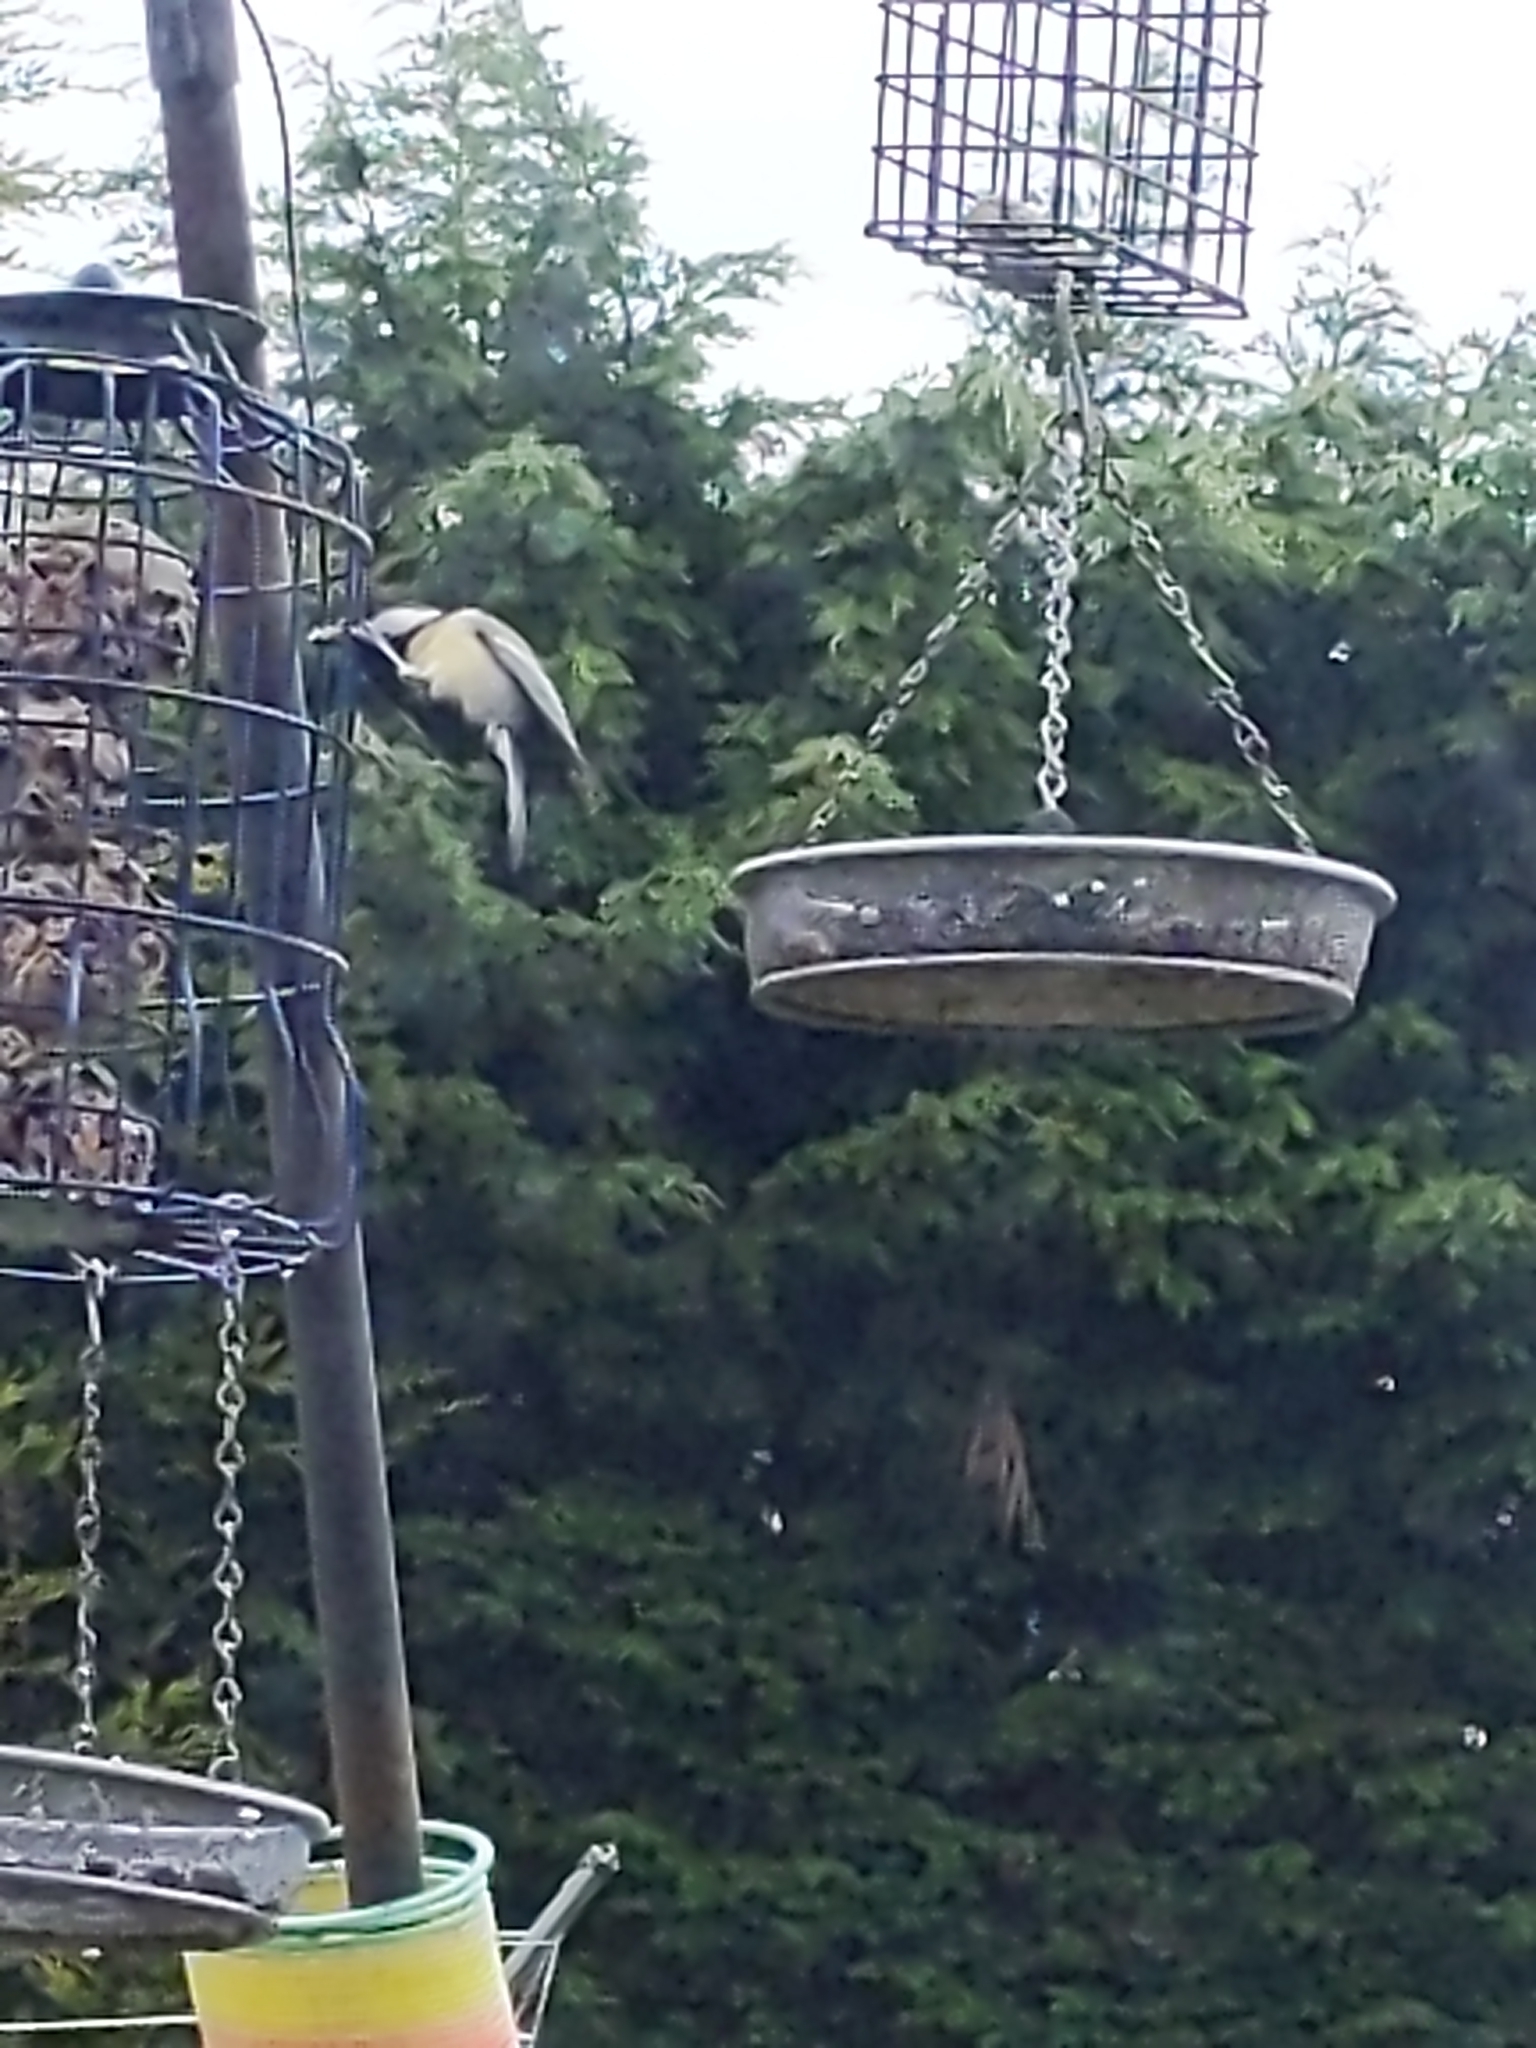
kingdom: Animalia
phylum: Chordata
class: Aves
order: Passeriformes
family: Paridae
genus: Parus
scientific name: Parus major
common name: Great tit
